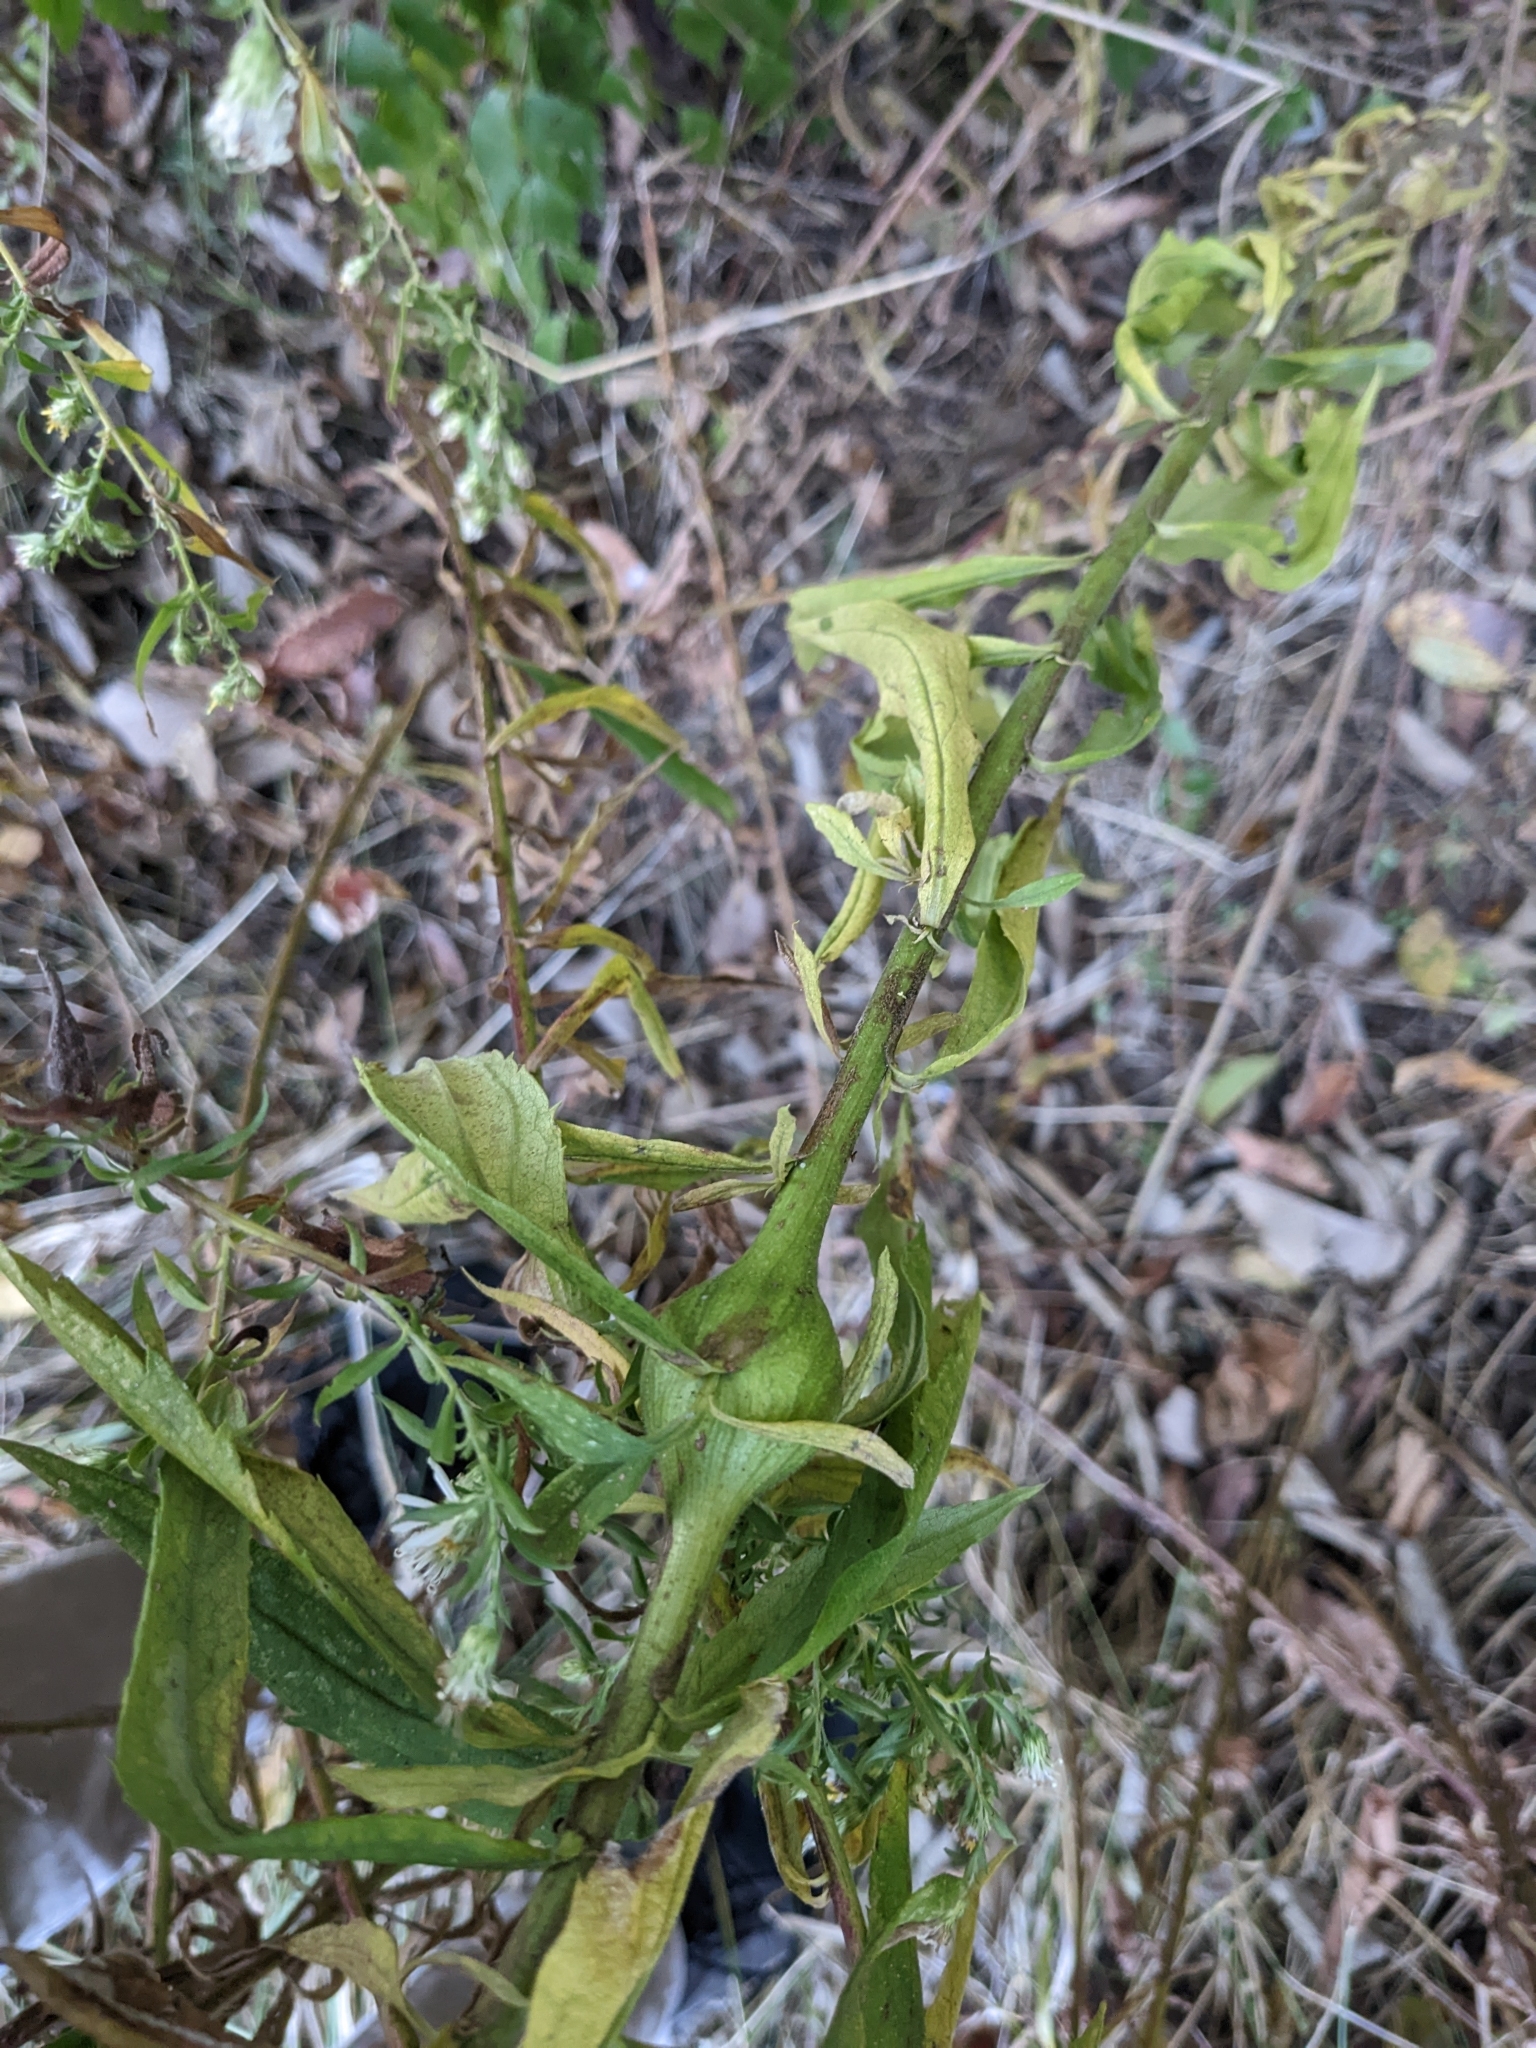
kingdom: Animalia
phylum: Arthropoda
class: Insecta
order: Diptera
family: Tephritidae
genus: Eurosta
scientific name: Eurosta solidaginis
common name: Goldenrod gall fly
